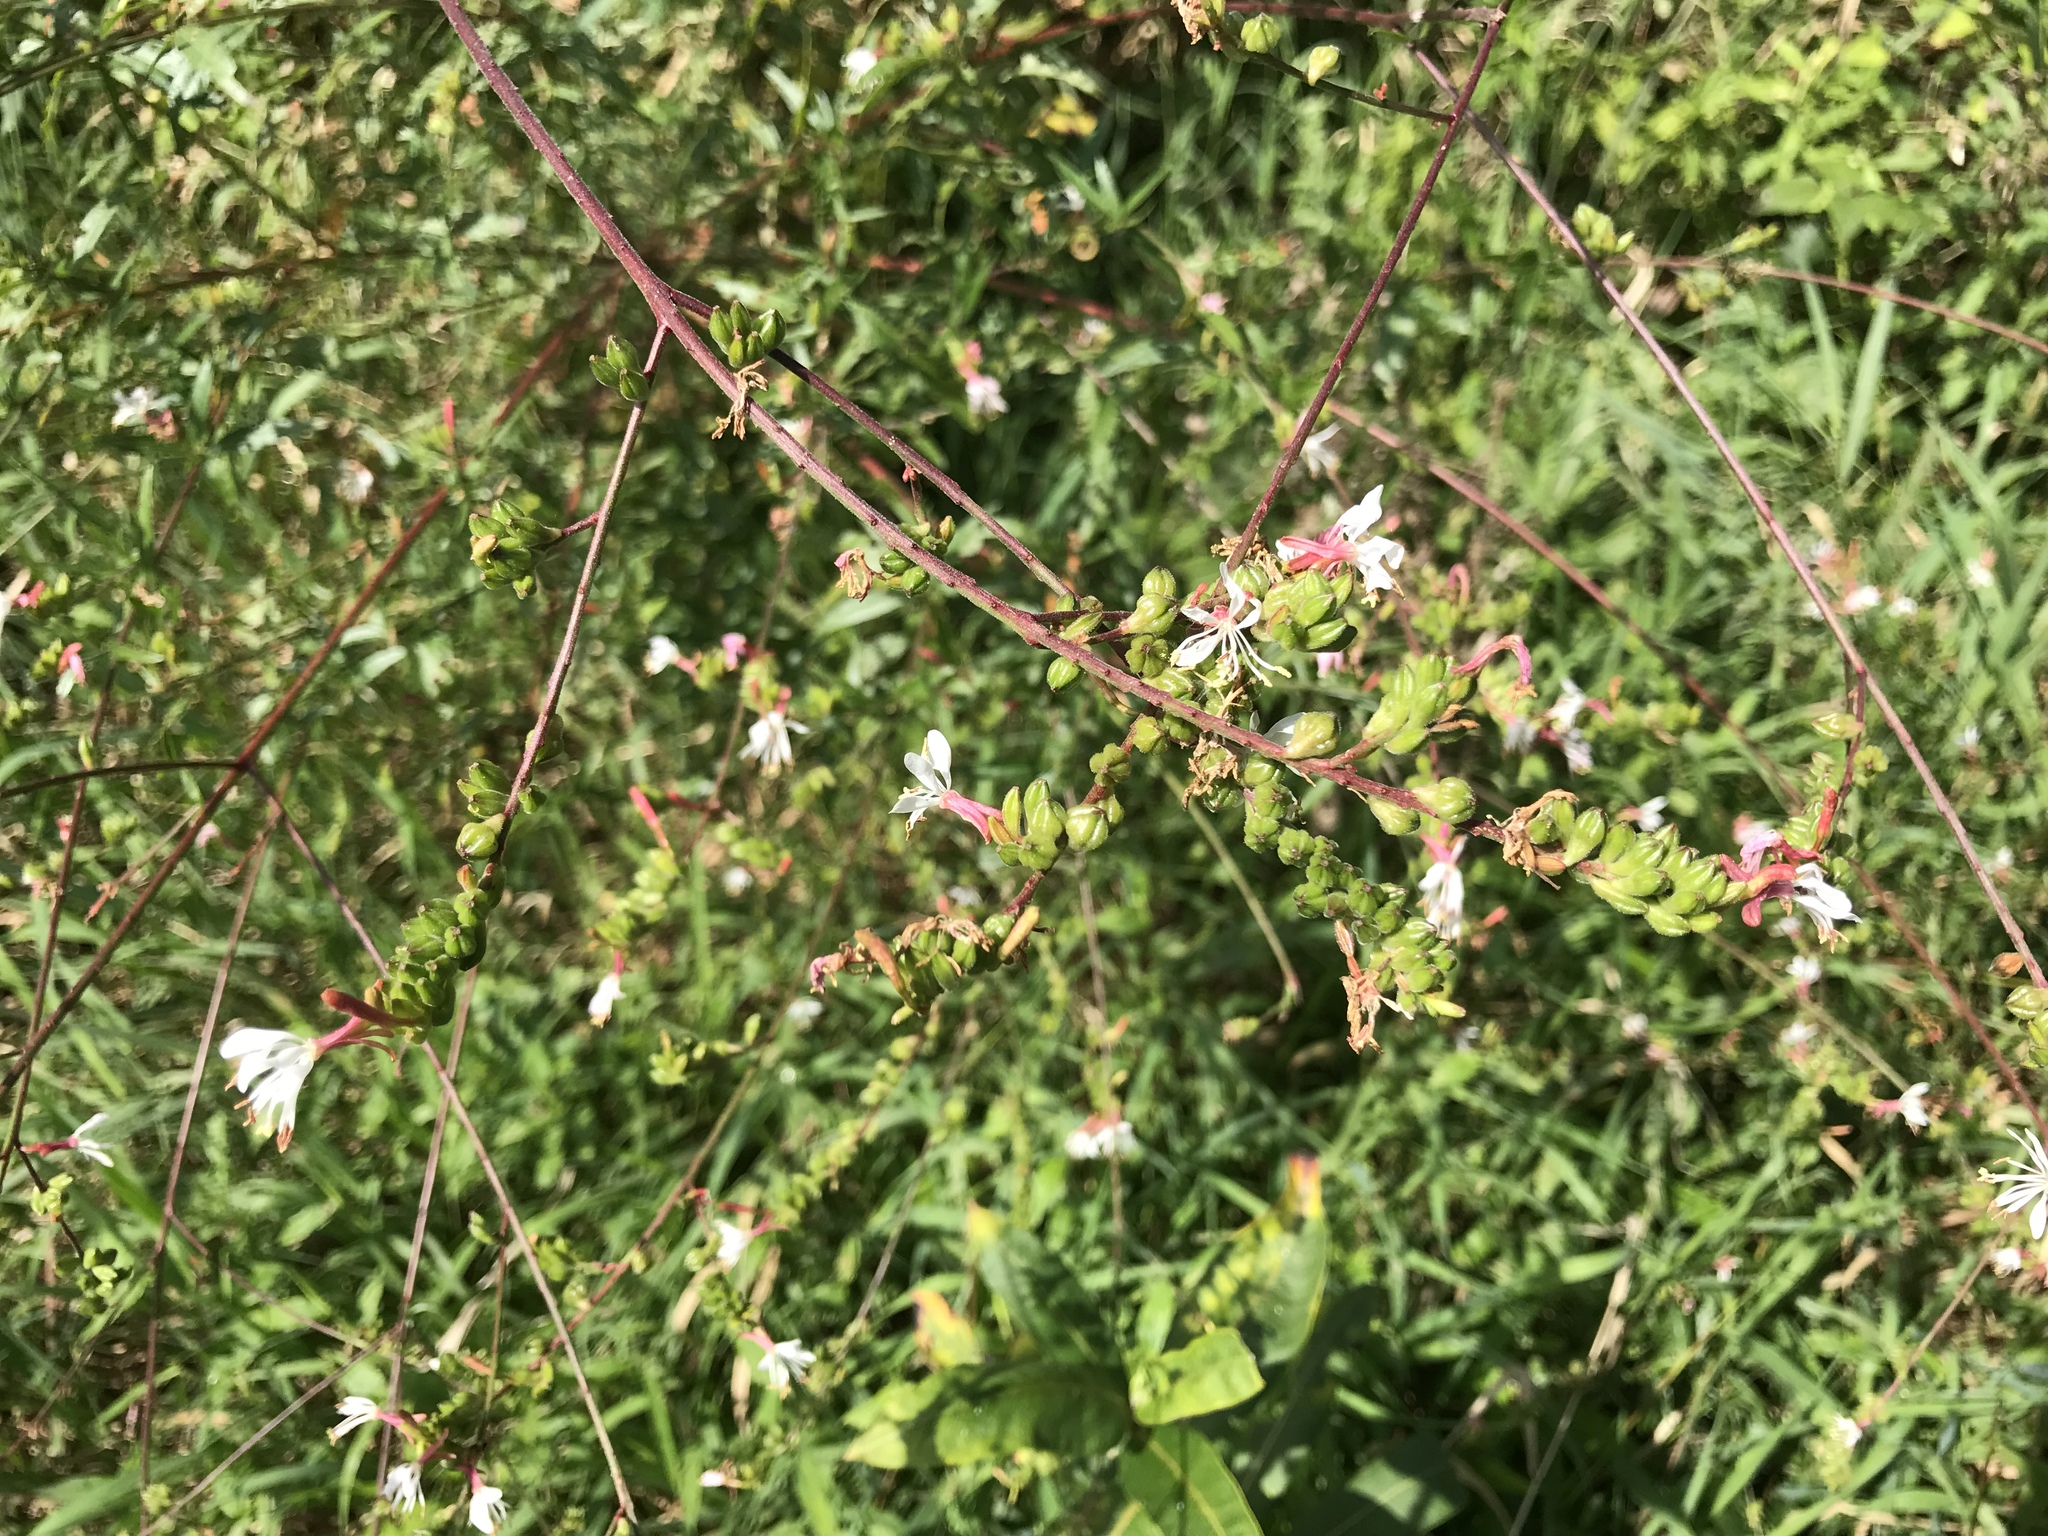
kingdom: Plantae
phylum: Tracheophyta
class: Magnoliopsida
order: Myrtales
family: Onagraceae
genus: Oenothera
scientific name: Oenothera gaura
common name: Biennial beeblossom
